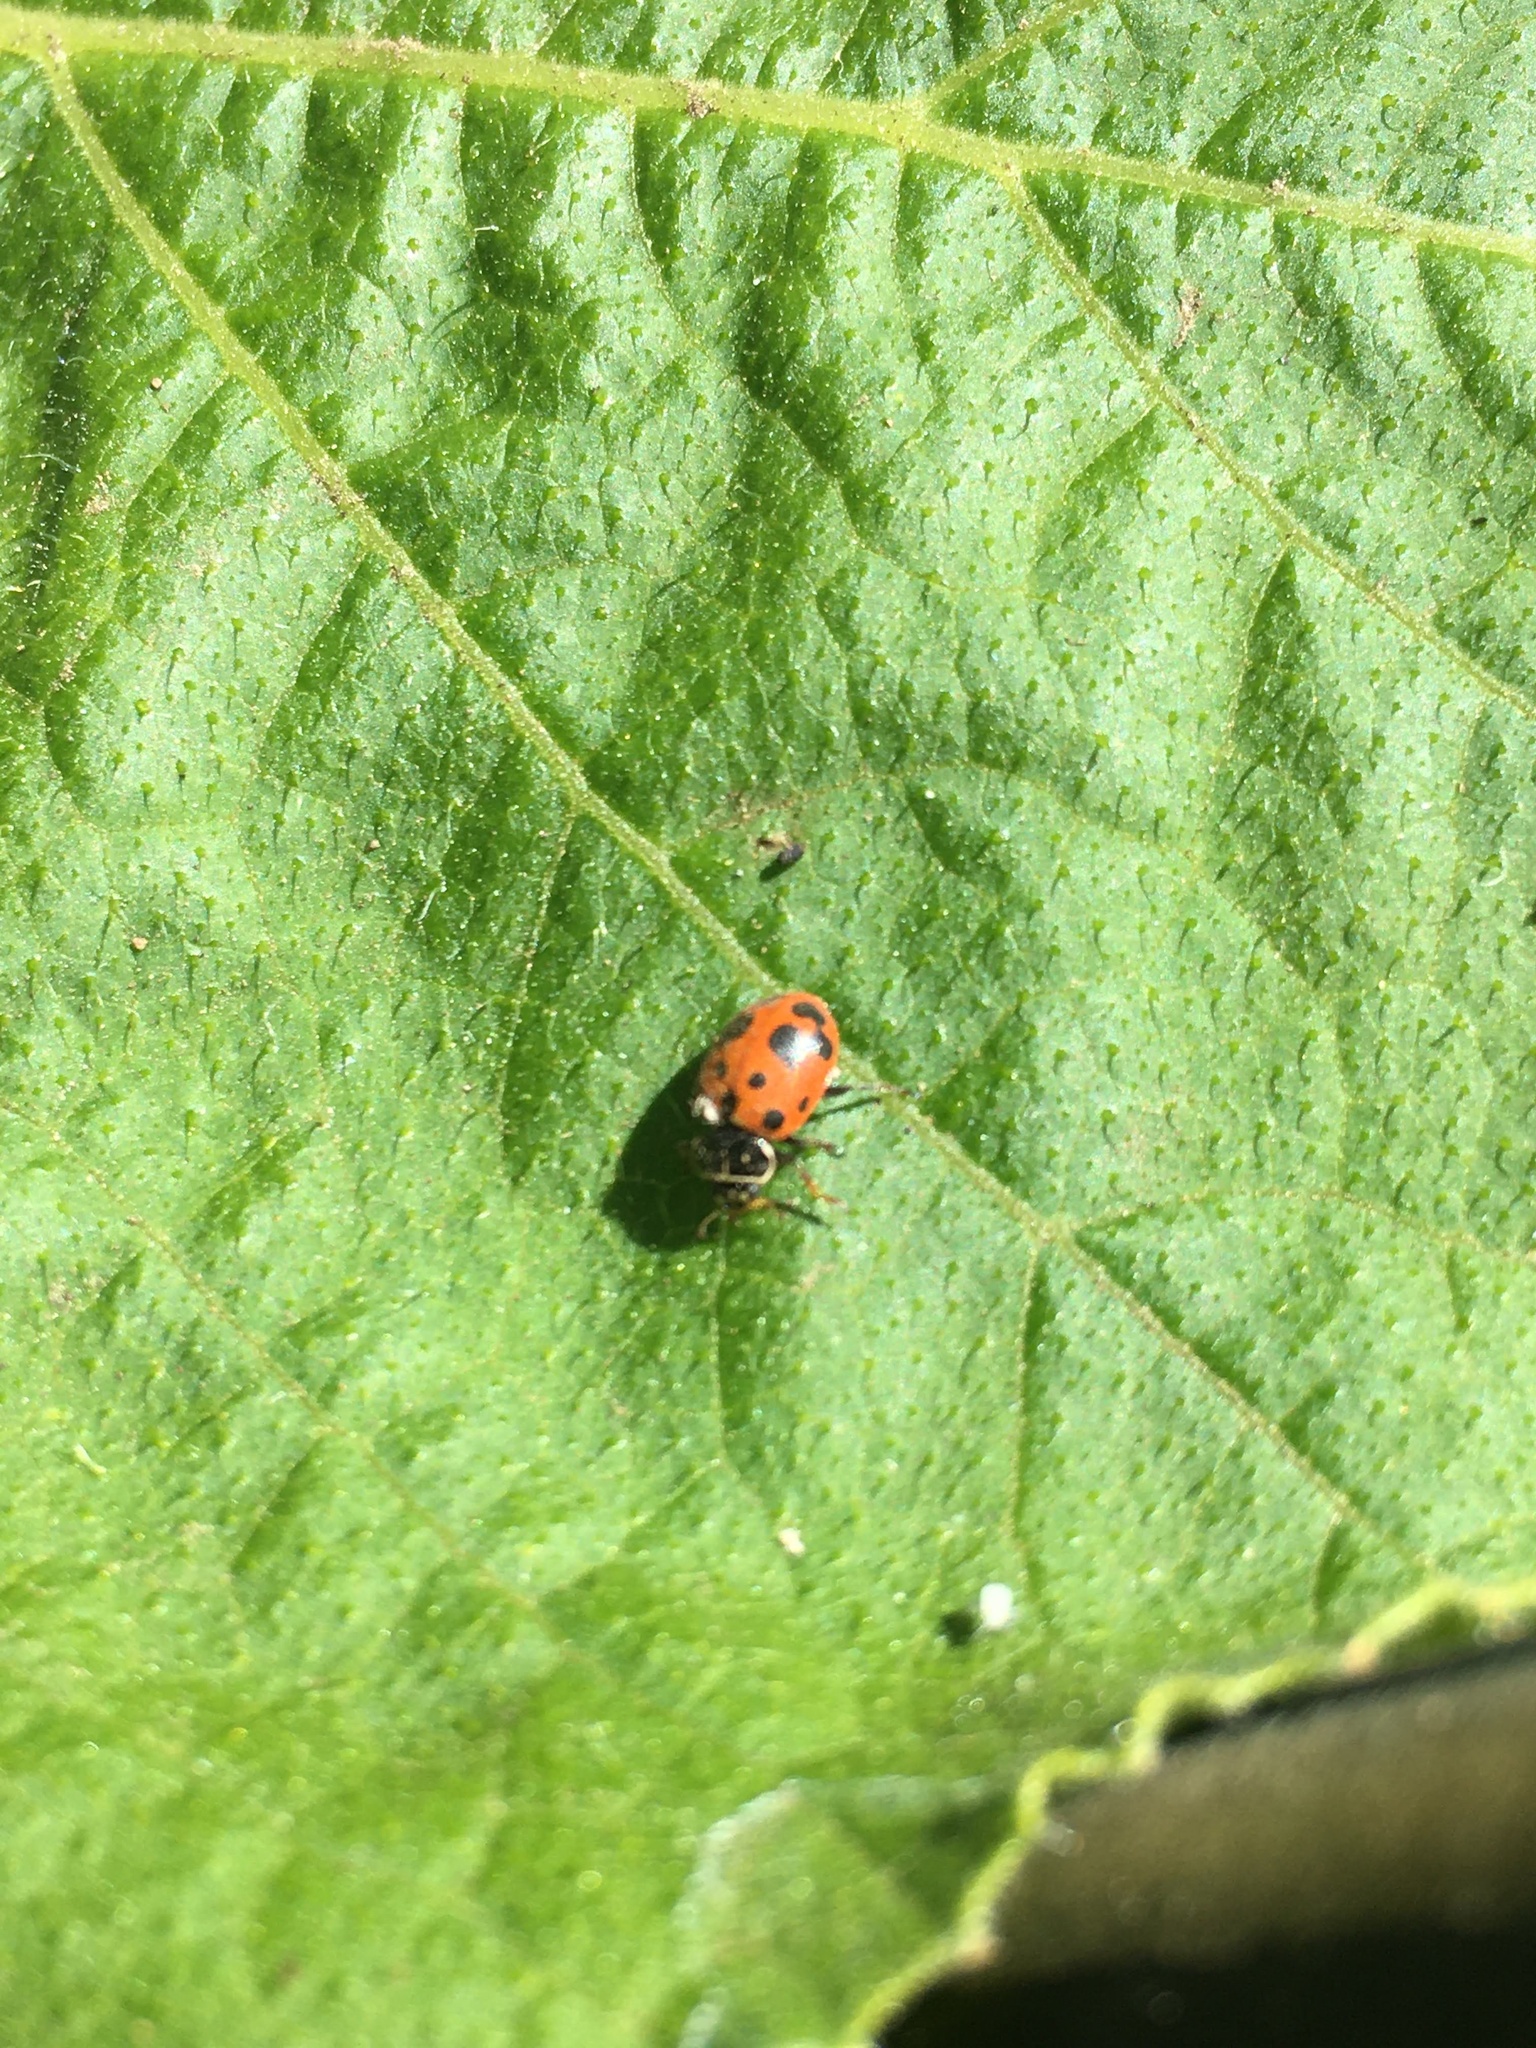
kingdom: Animalia
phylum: Arthropoda
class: Insecta
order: Coleoptera
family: Coccinellidae
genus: Hippodamia
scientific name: Hippodamia variegata
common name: Ladybird beetle
